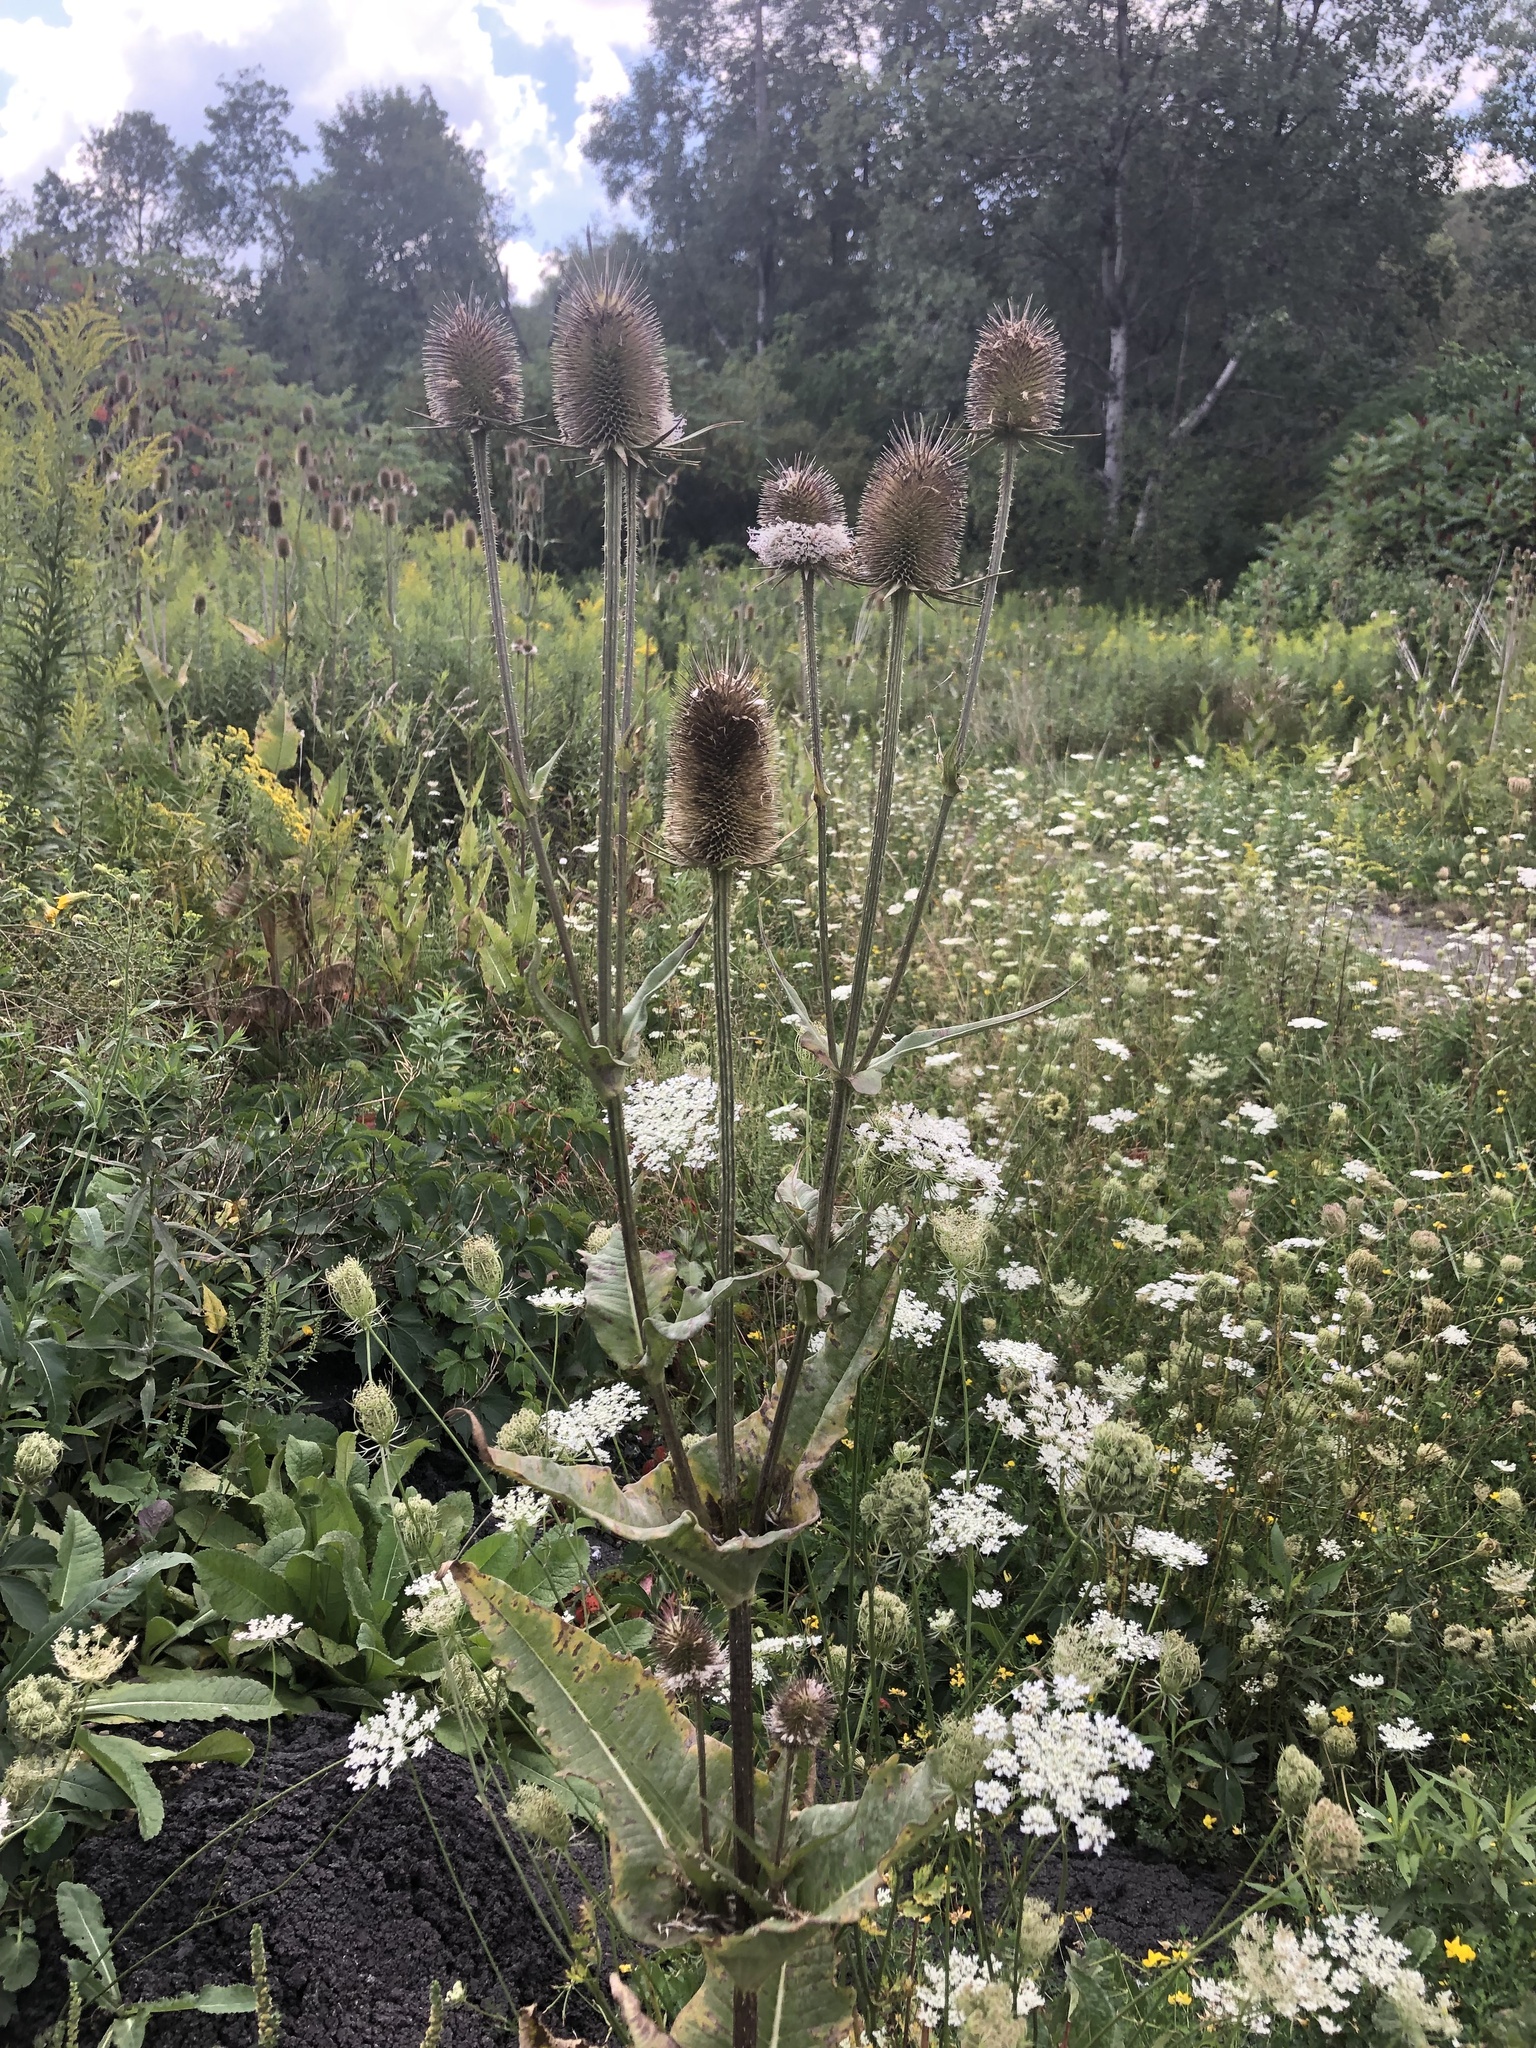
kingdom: Plantae
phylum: Tracheophyta
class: Magnoliopsida
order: Dipsacales
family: Caprifoliaceae
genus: Dipsacus
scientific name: Dipsacus laciniatus
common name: Cut-leaved teasel
